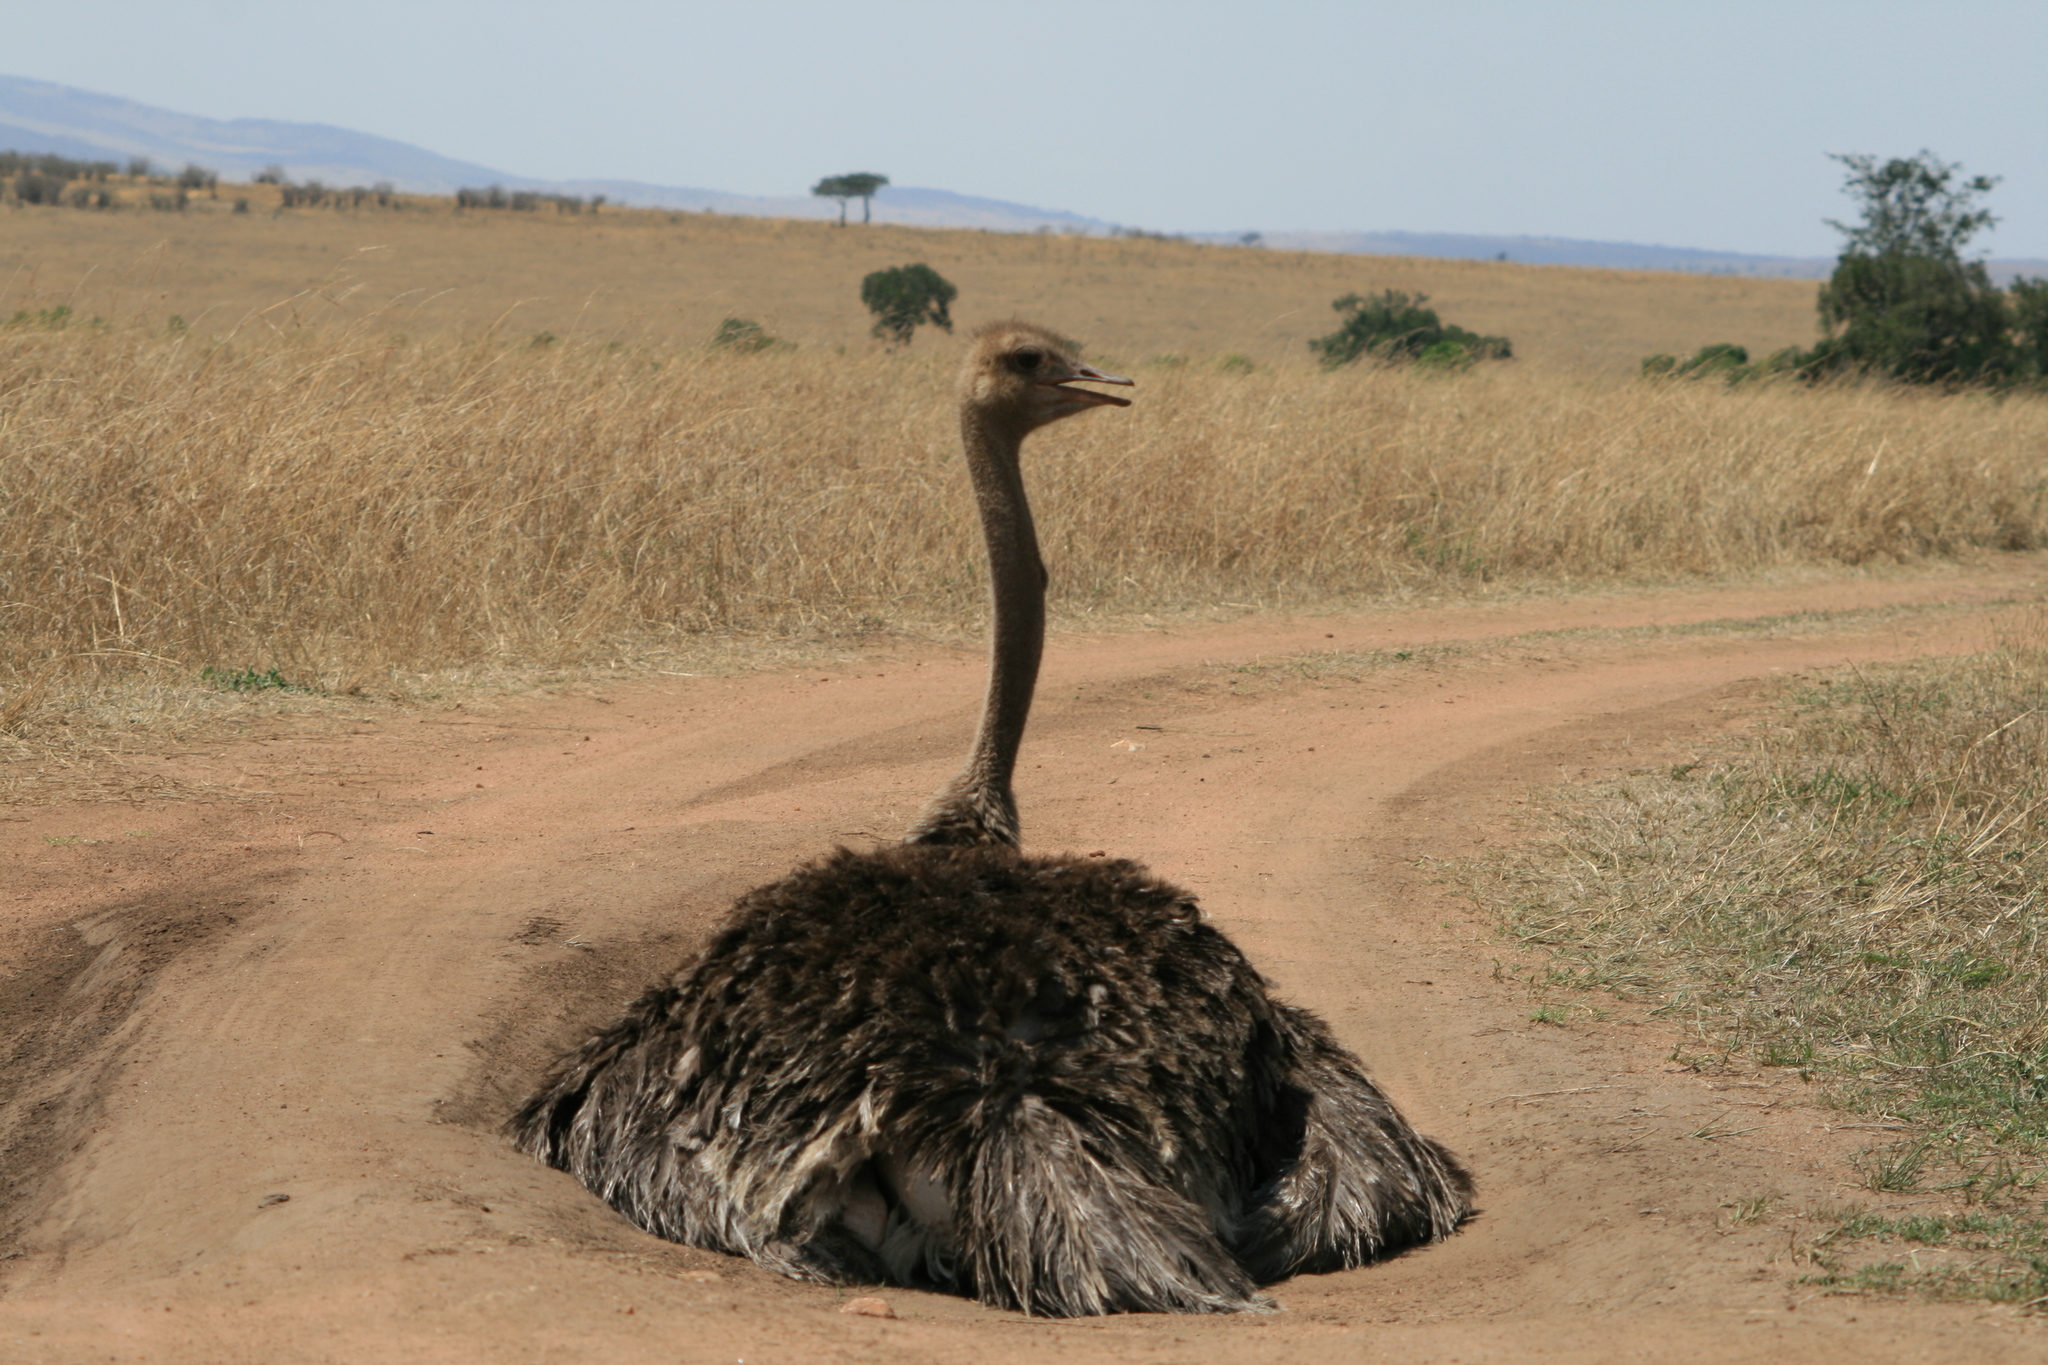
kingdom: Animalia
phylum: Chordata
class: Aves
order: Struthioniformes
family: Struthionidae
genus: Struthio
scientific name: Struthio camelus
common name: Common ostrich
